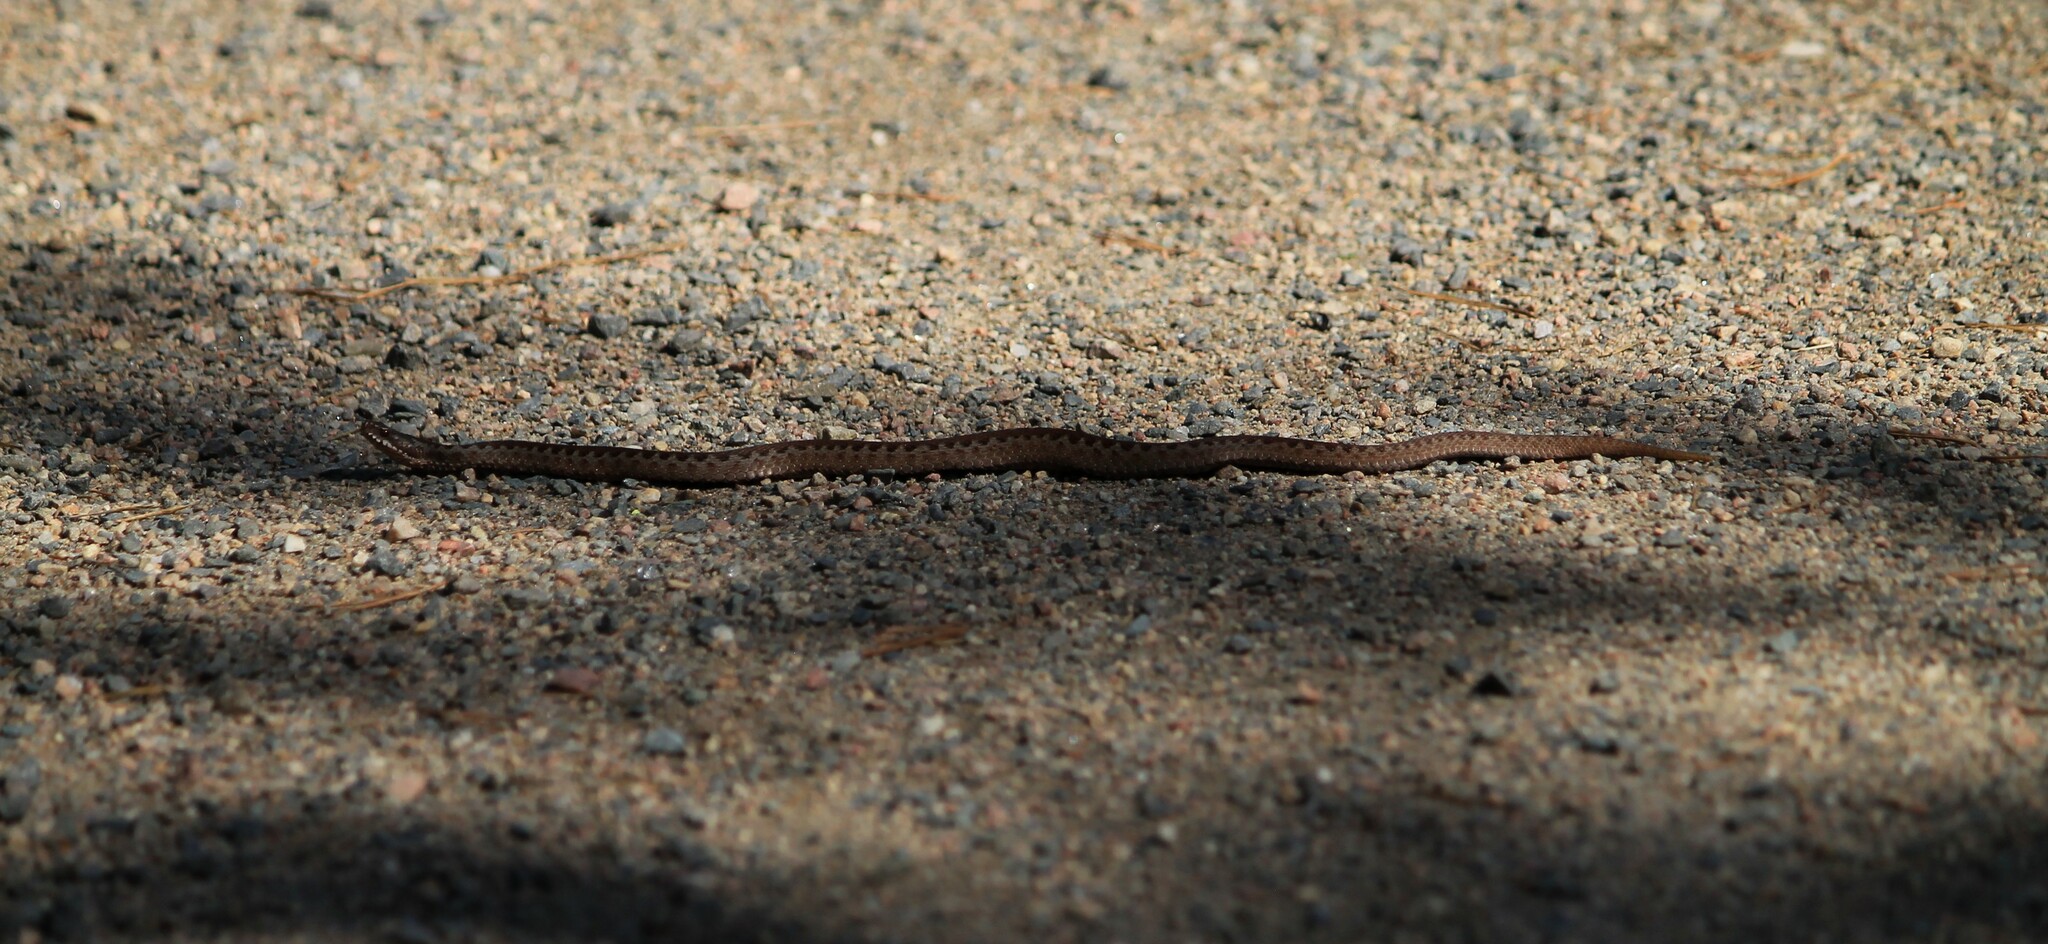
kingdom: Animalia
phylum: Chordata
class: Squamata
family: Viperidae
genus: Vipera
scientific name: Vipera berus
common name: Adder
